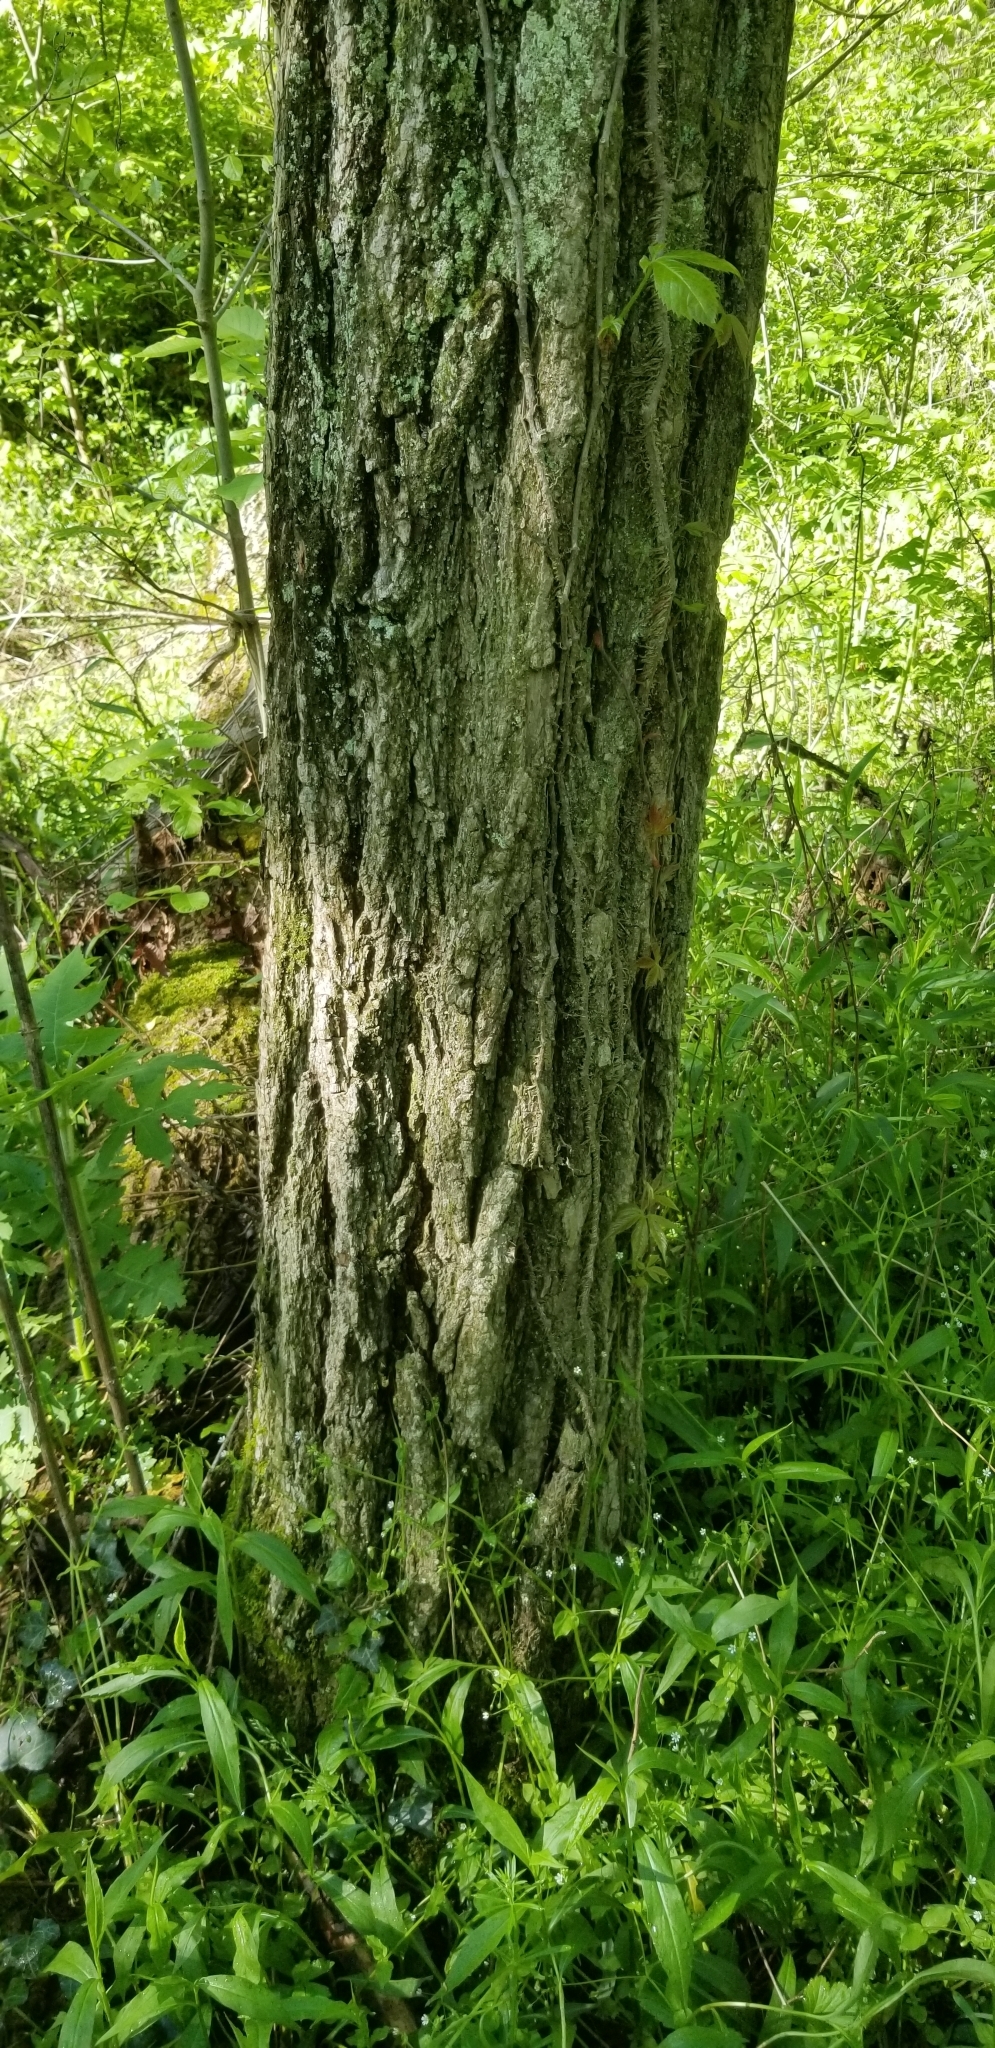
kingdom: Plantae
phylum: Tracheophyta
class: Magnoliopsida
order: Fabales
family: Fabaceae
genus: Robinia
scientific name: Robinia pseudoacacia
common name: Black locust
